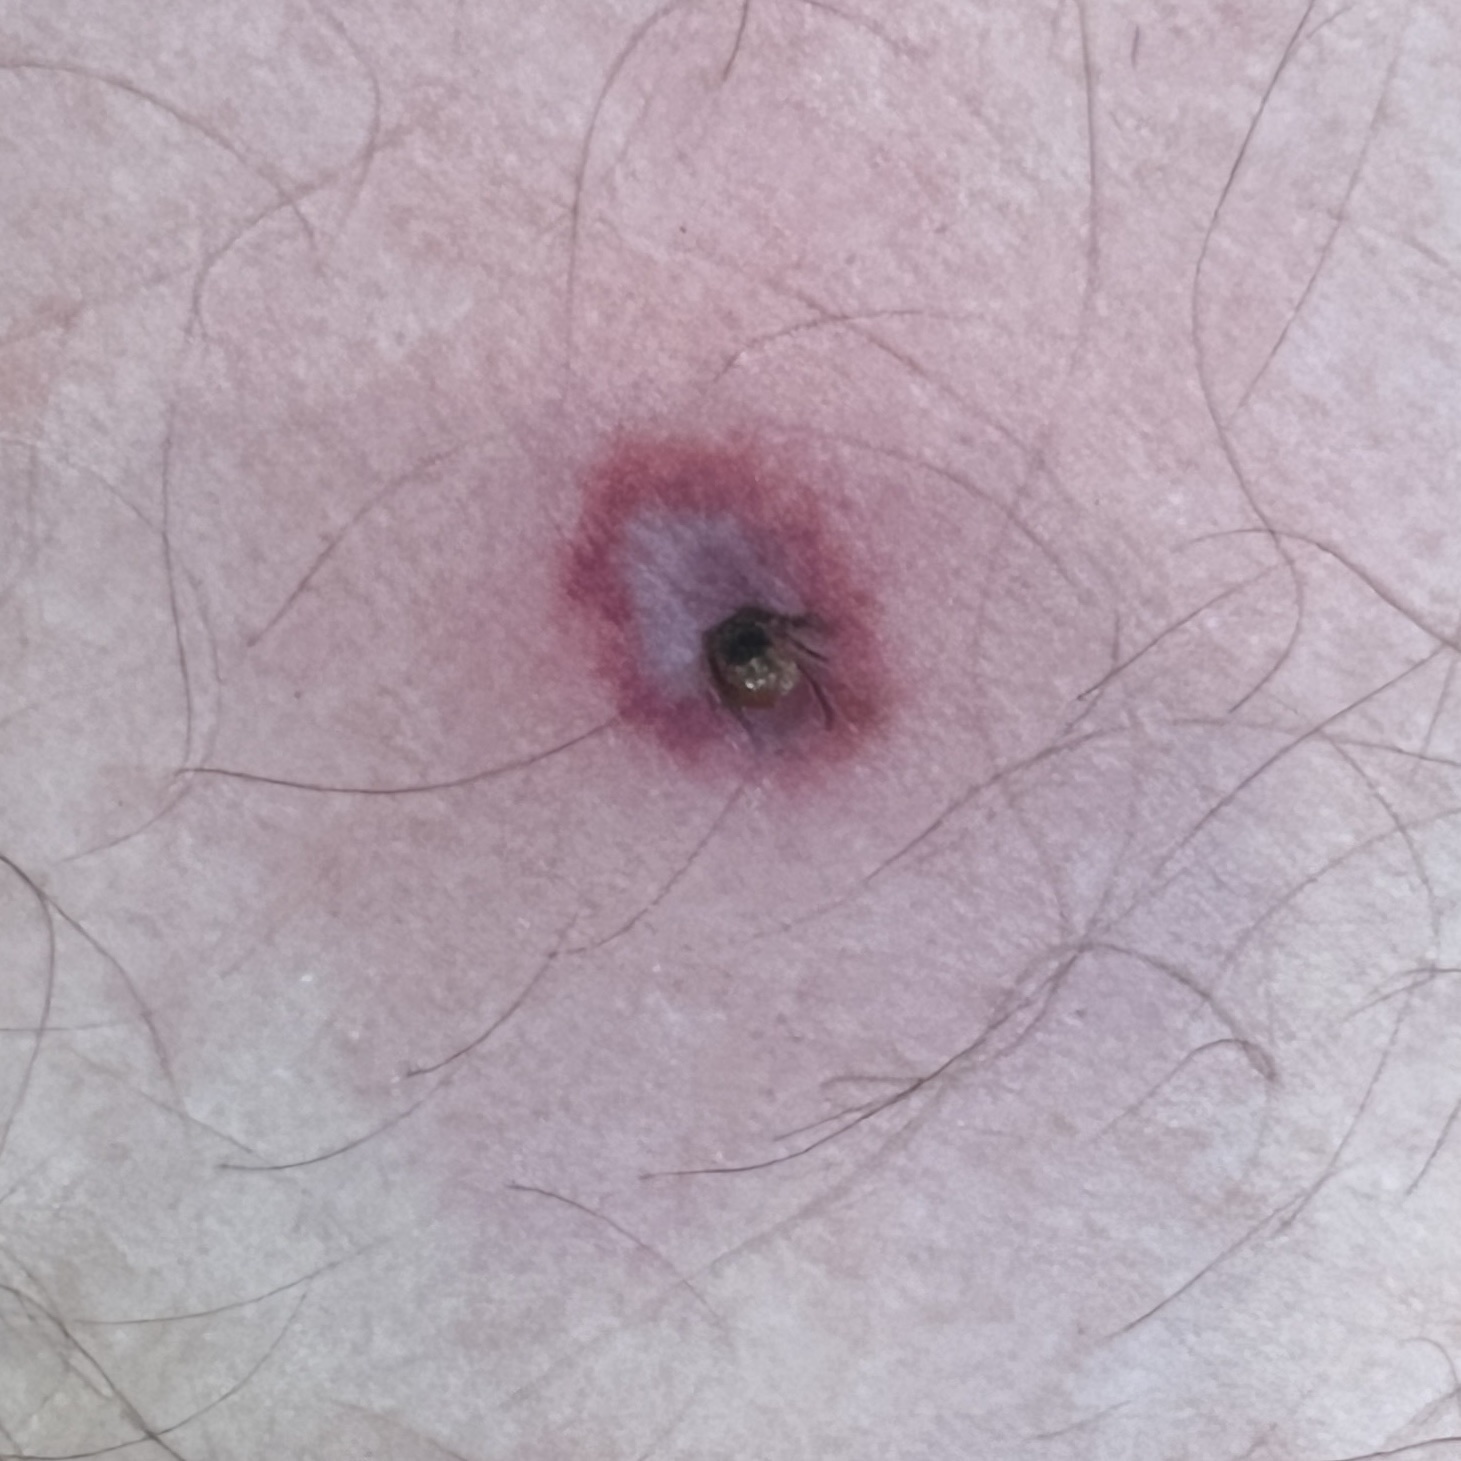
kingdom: Animalia
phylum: Arthropoda
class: Arachnida
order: Ixodida
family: Ixodidae
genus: Ixodes
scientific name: Ixodes scapularis
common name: Black legged tick
